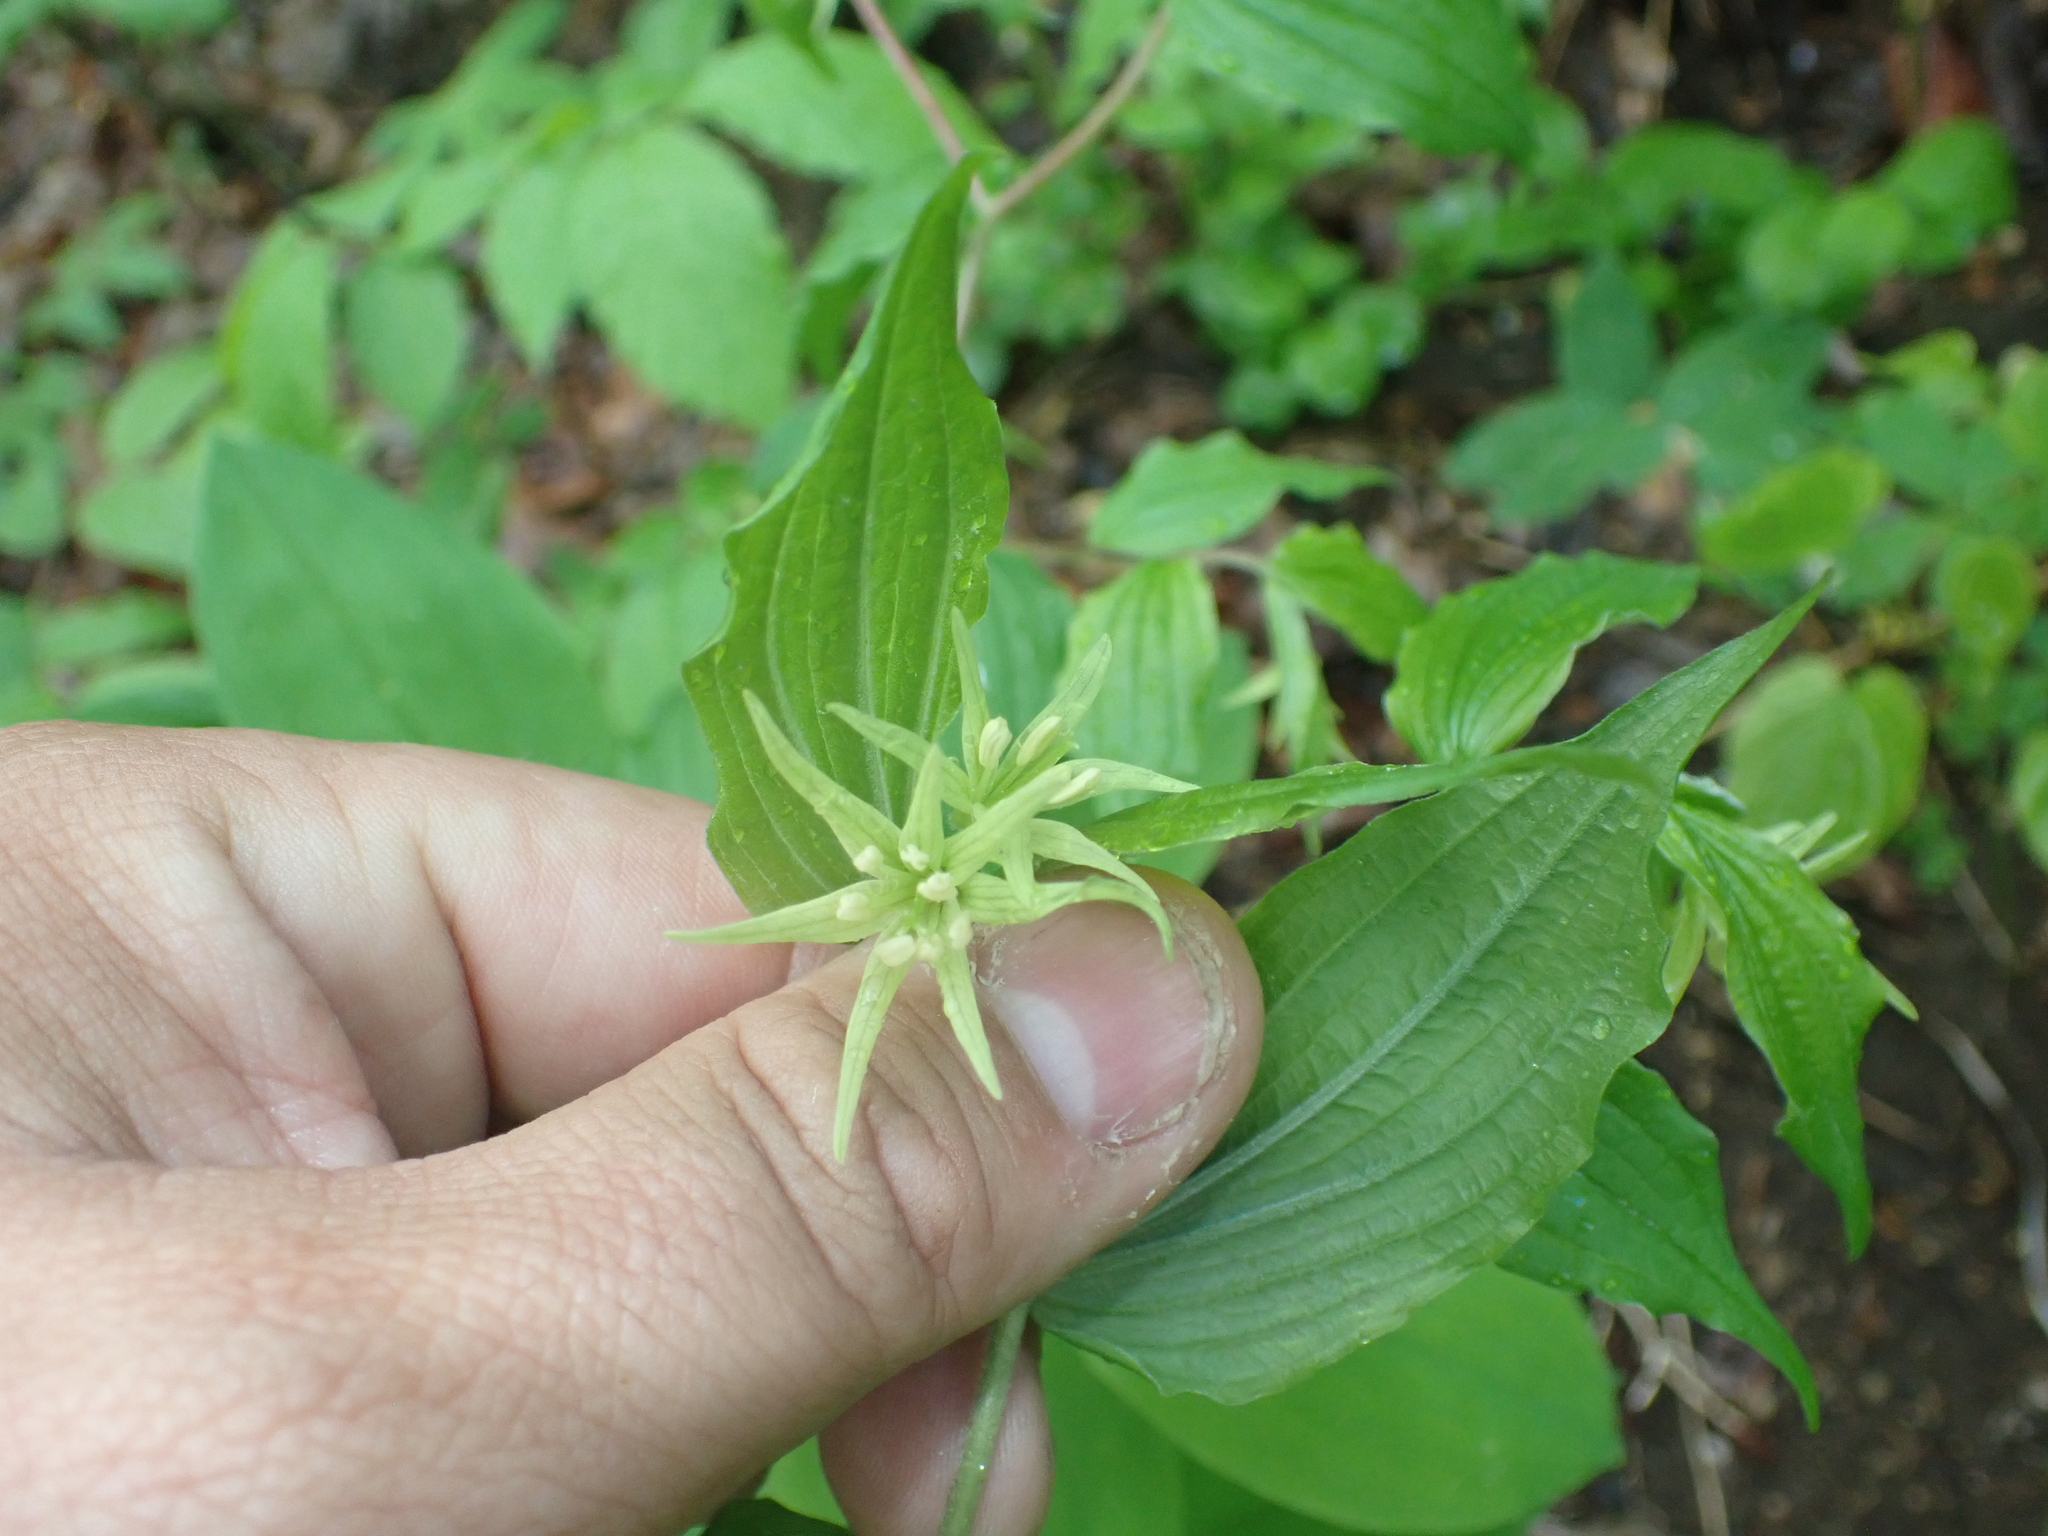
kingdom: Plantae
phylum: Tracheophyta
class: Liliopsida
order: Liliales
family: Liliaceae
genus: Prosartes
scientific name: Prosartes lanuginosa
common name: Hairy mandarin
